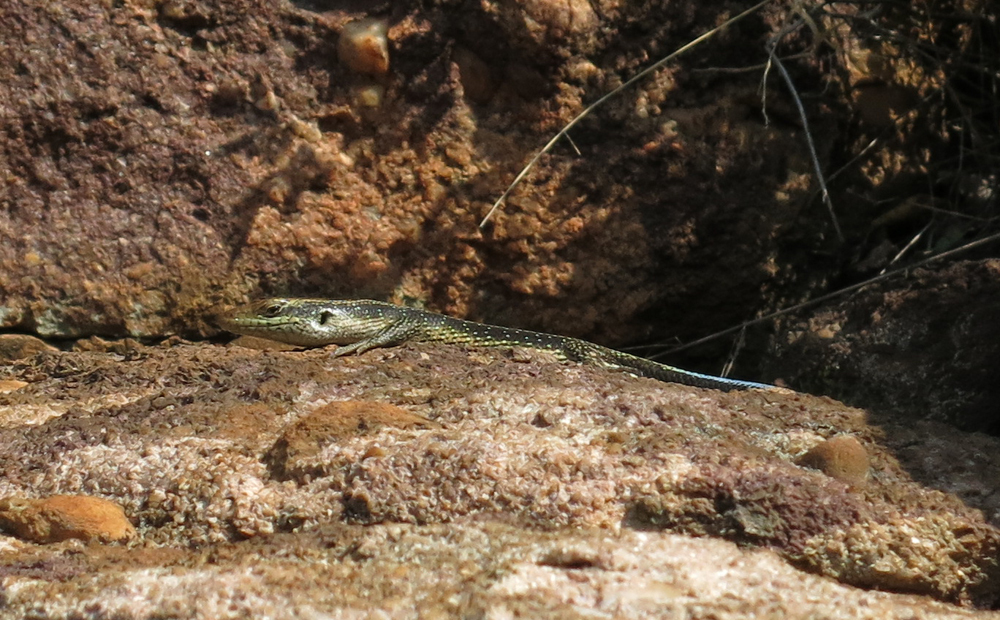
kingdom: Animalia
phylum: Chordata
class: Squamata
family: Scincidae
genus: Trachylepis
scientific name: Trachylepis margaritifera
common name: Rainbow skink
